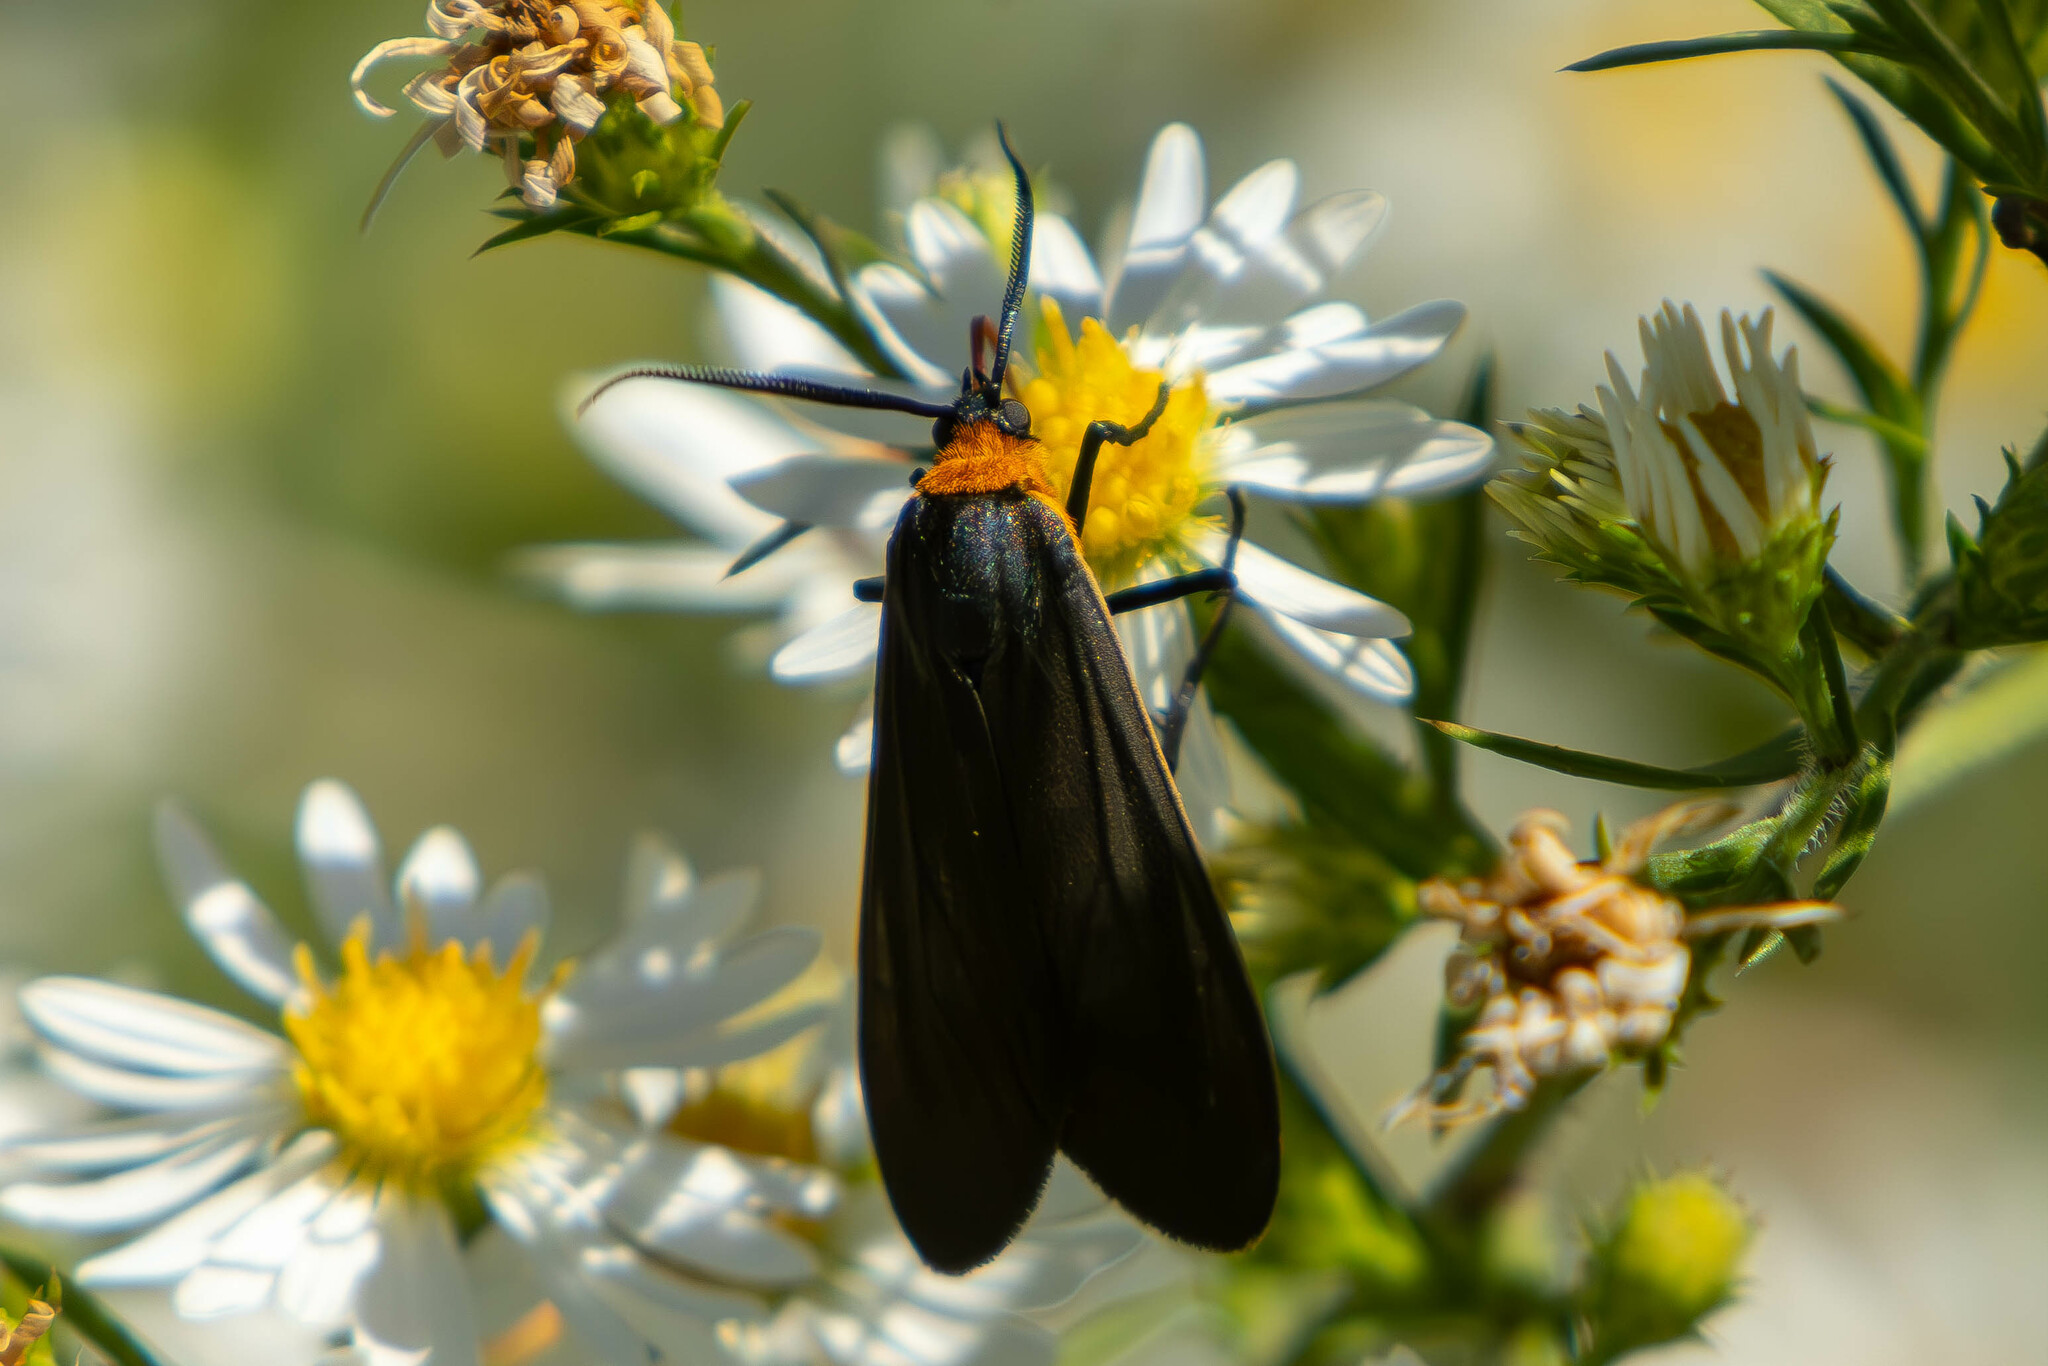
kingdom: Animalia
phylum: Arthropoda
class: Insecta
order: Lepidoptera
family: Erebidae
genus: Cisseps
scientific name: Cisseps fulvicollis
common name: Yellow-collared scape moth
